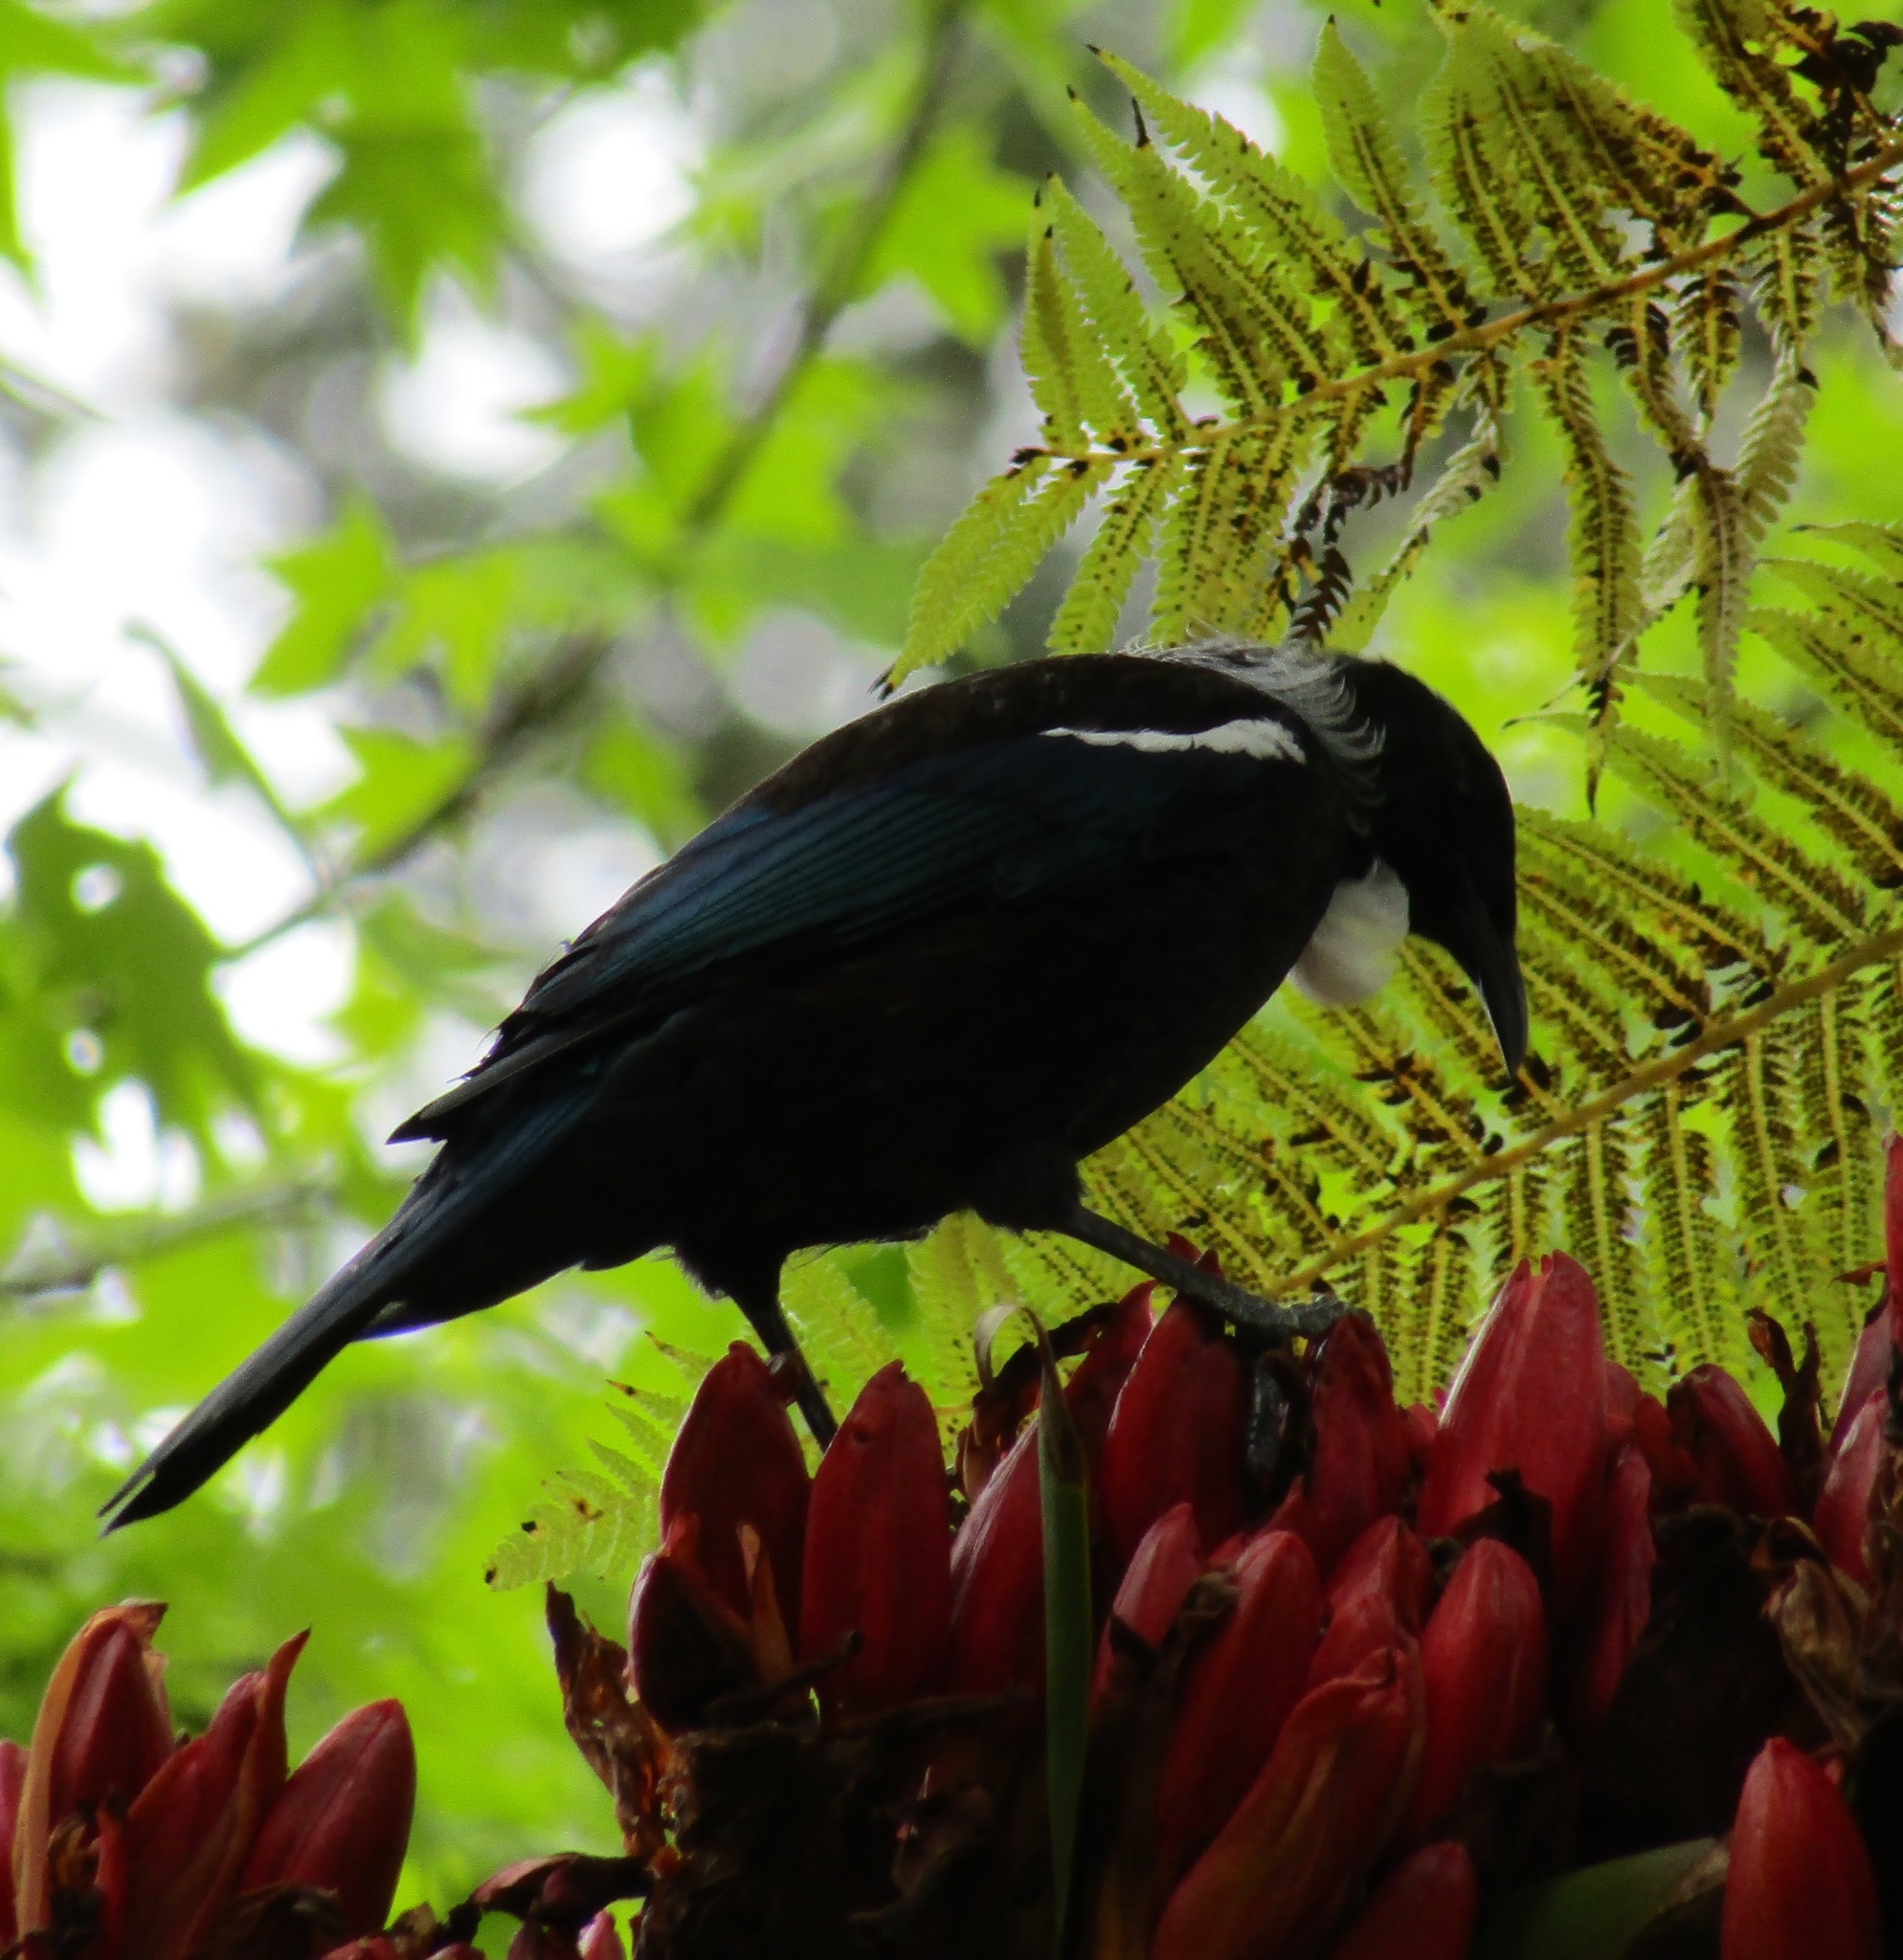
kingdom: Animalia
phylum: Chordata
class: Aves
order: Passeriformes
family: Meliphagidae
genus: Prosthemadera
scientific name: Prosthemadera novaeseelandiae
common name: Tui
